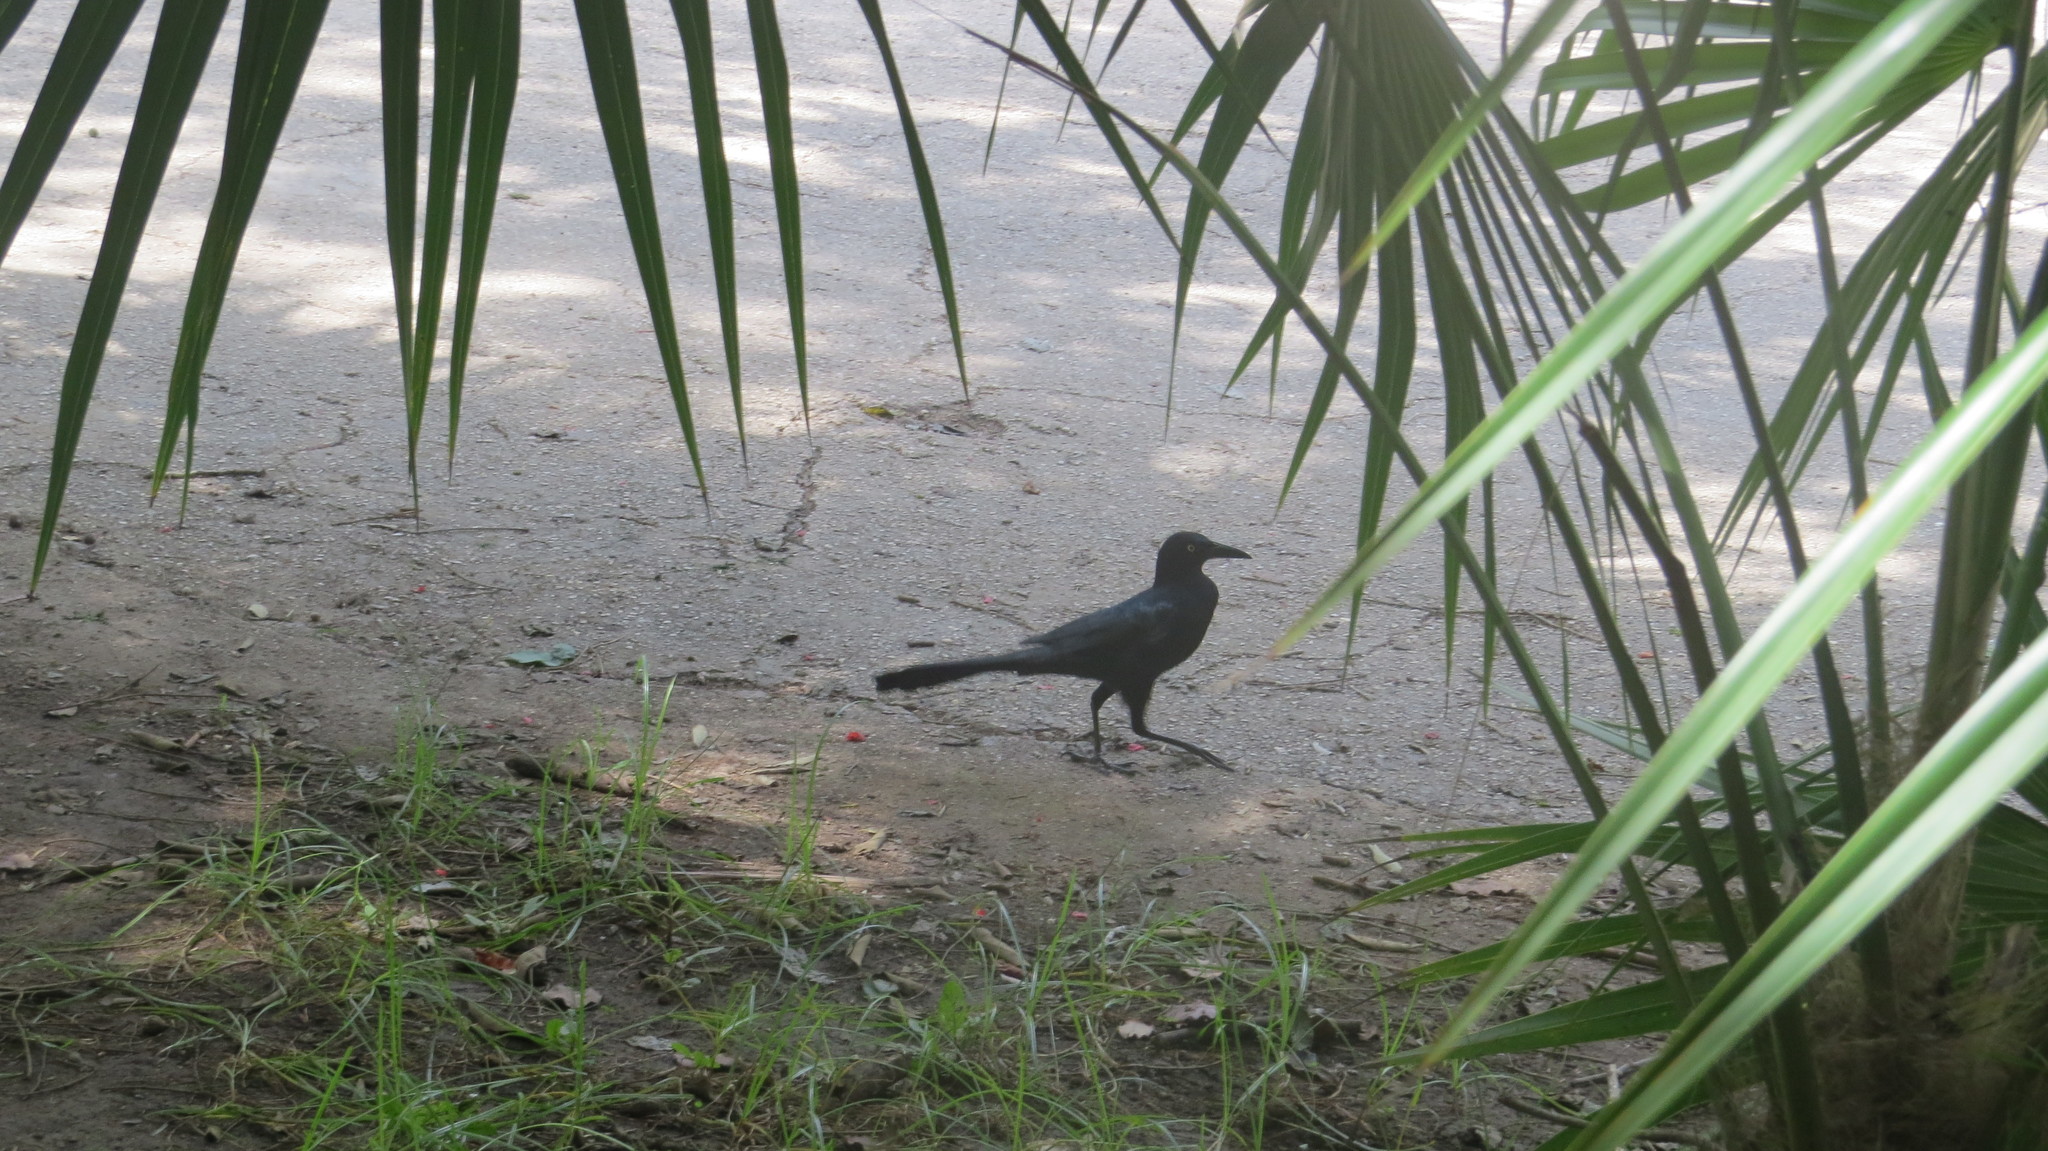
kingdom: Animalia
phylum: Chordata
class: Aves
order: Passeriformes
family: Icteridae
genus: Quiscalus
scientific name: Quiscalus mexicanus
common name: Great-tailed grackle
